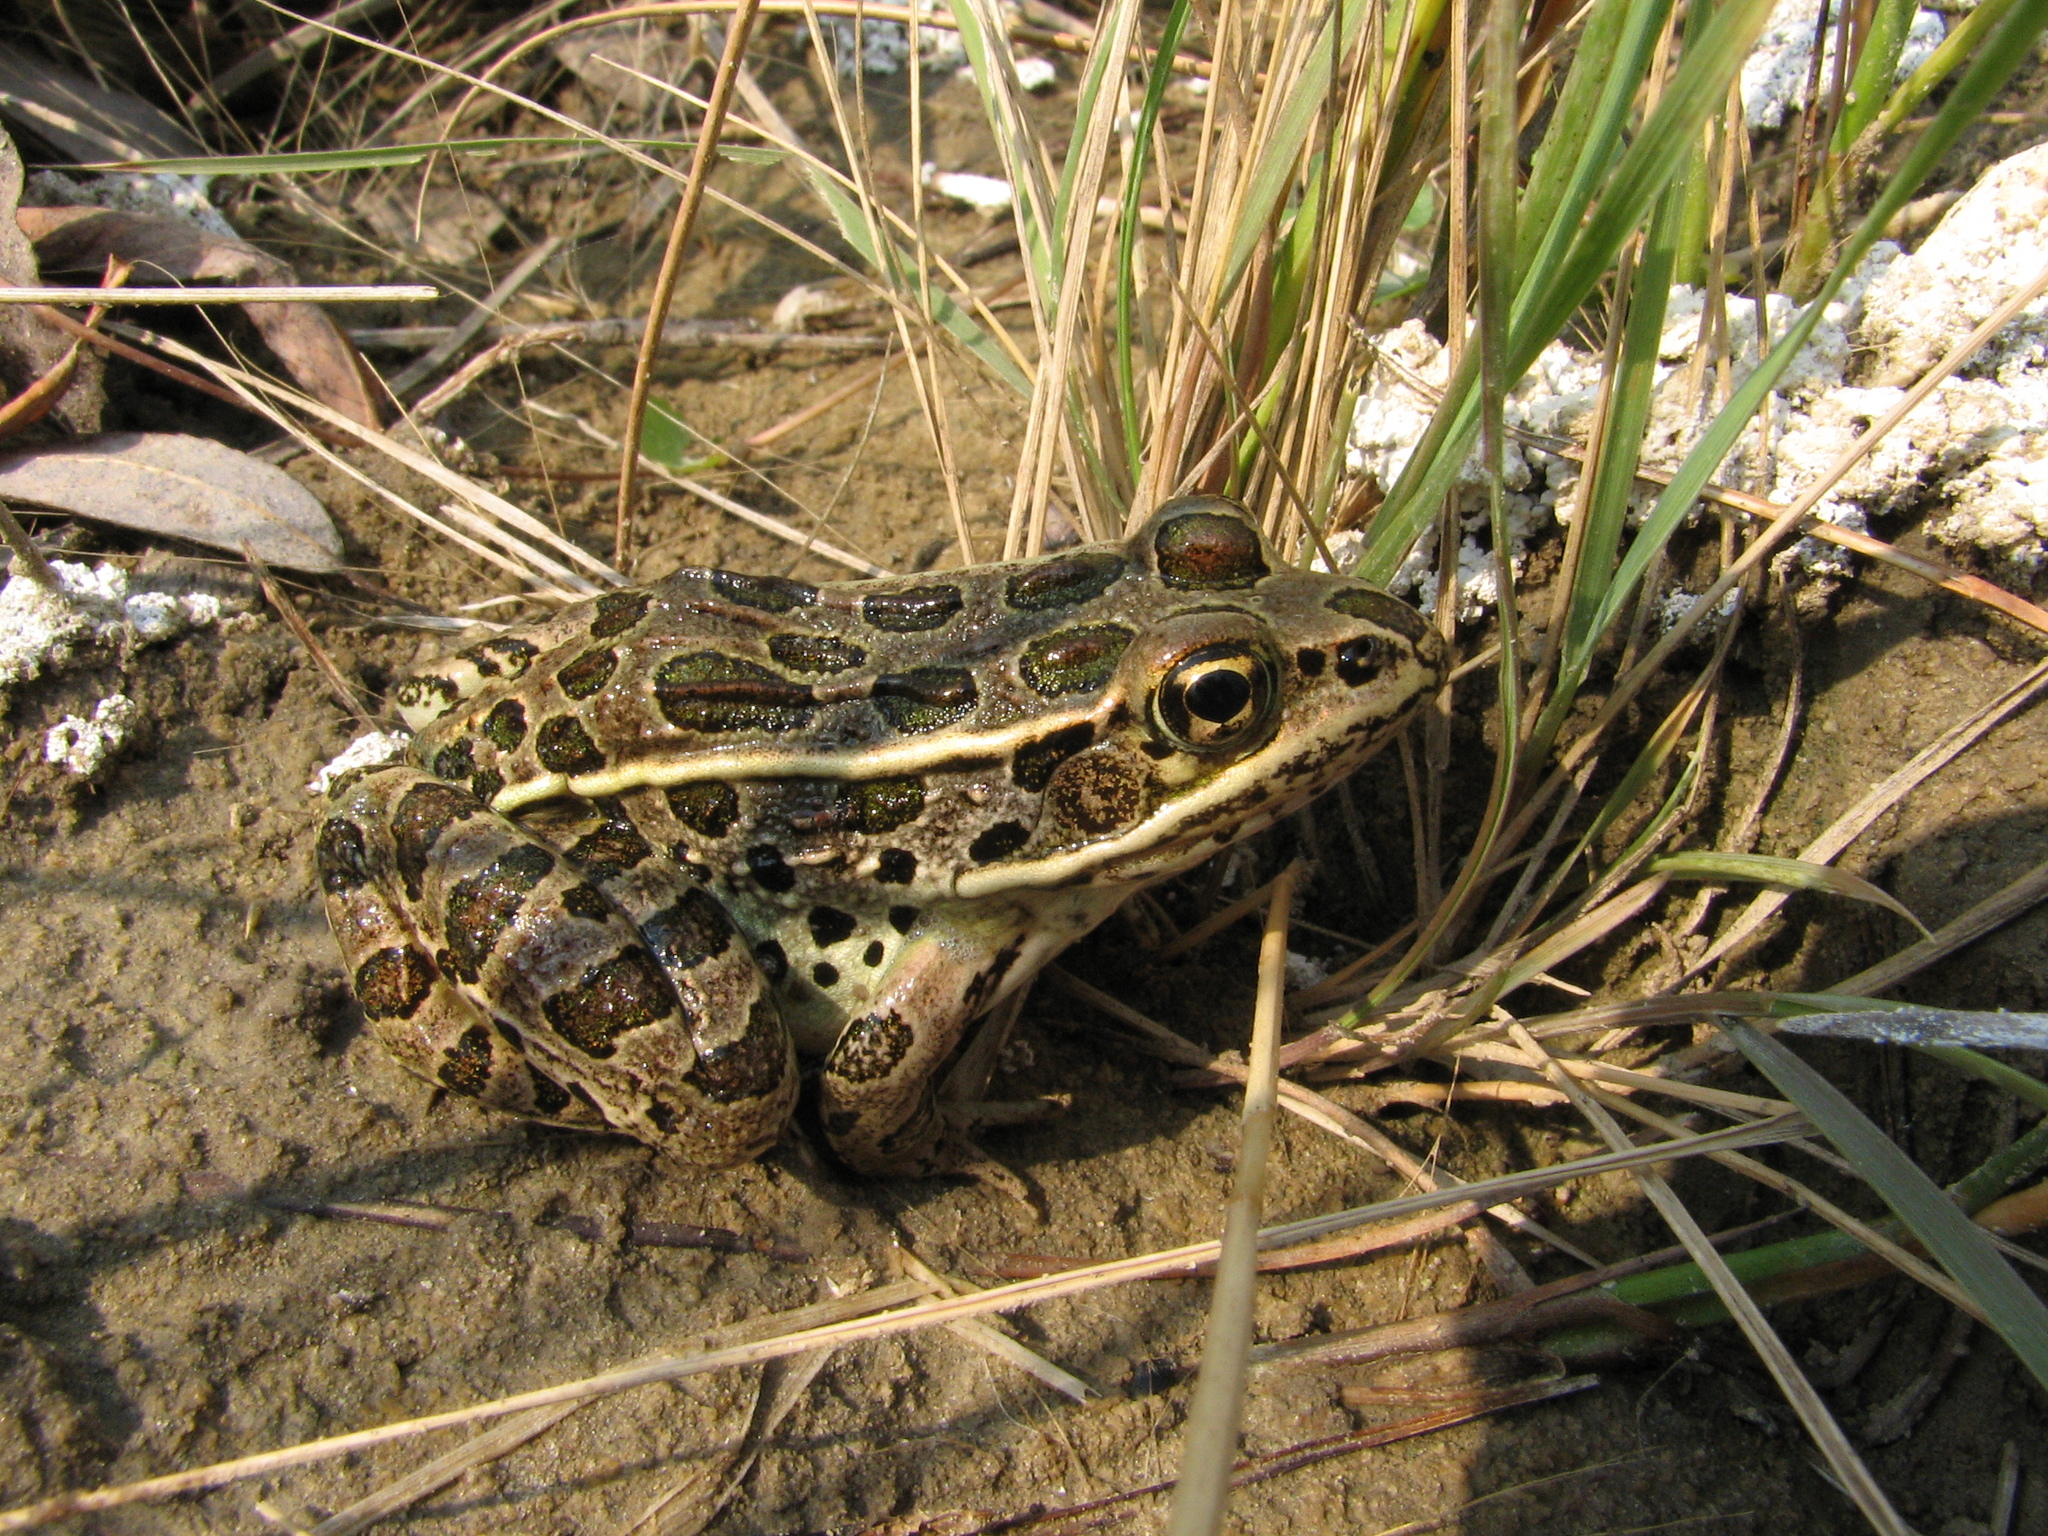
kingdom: Animalia
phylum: Chordata
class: Amphibia
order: Anura
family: Ranidae
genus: Lithobates
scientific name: Lithobates pipiens
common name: Northern leopard frog
